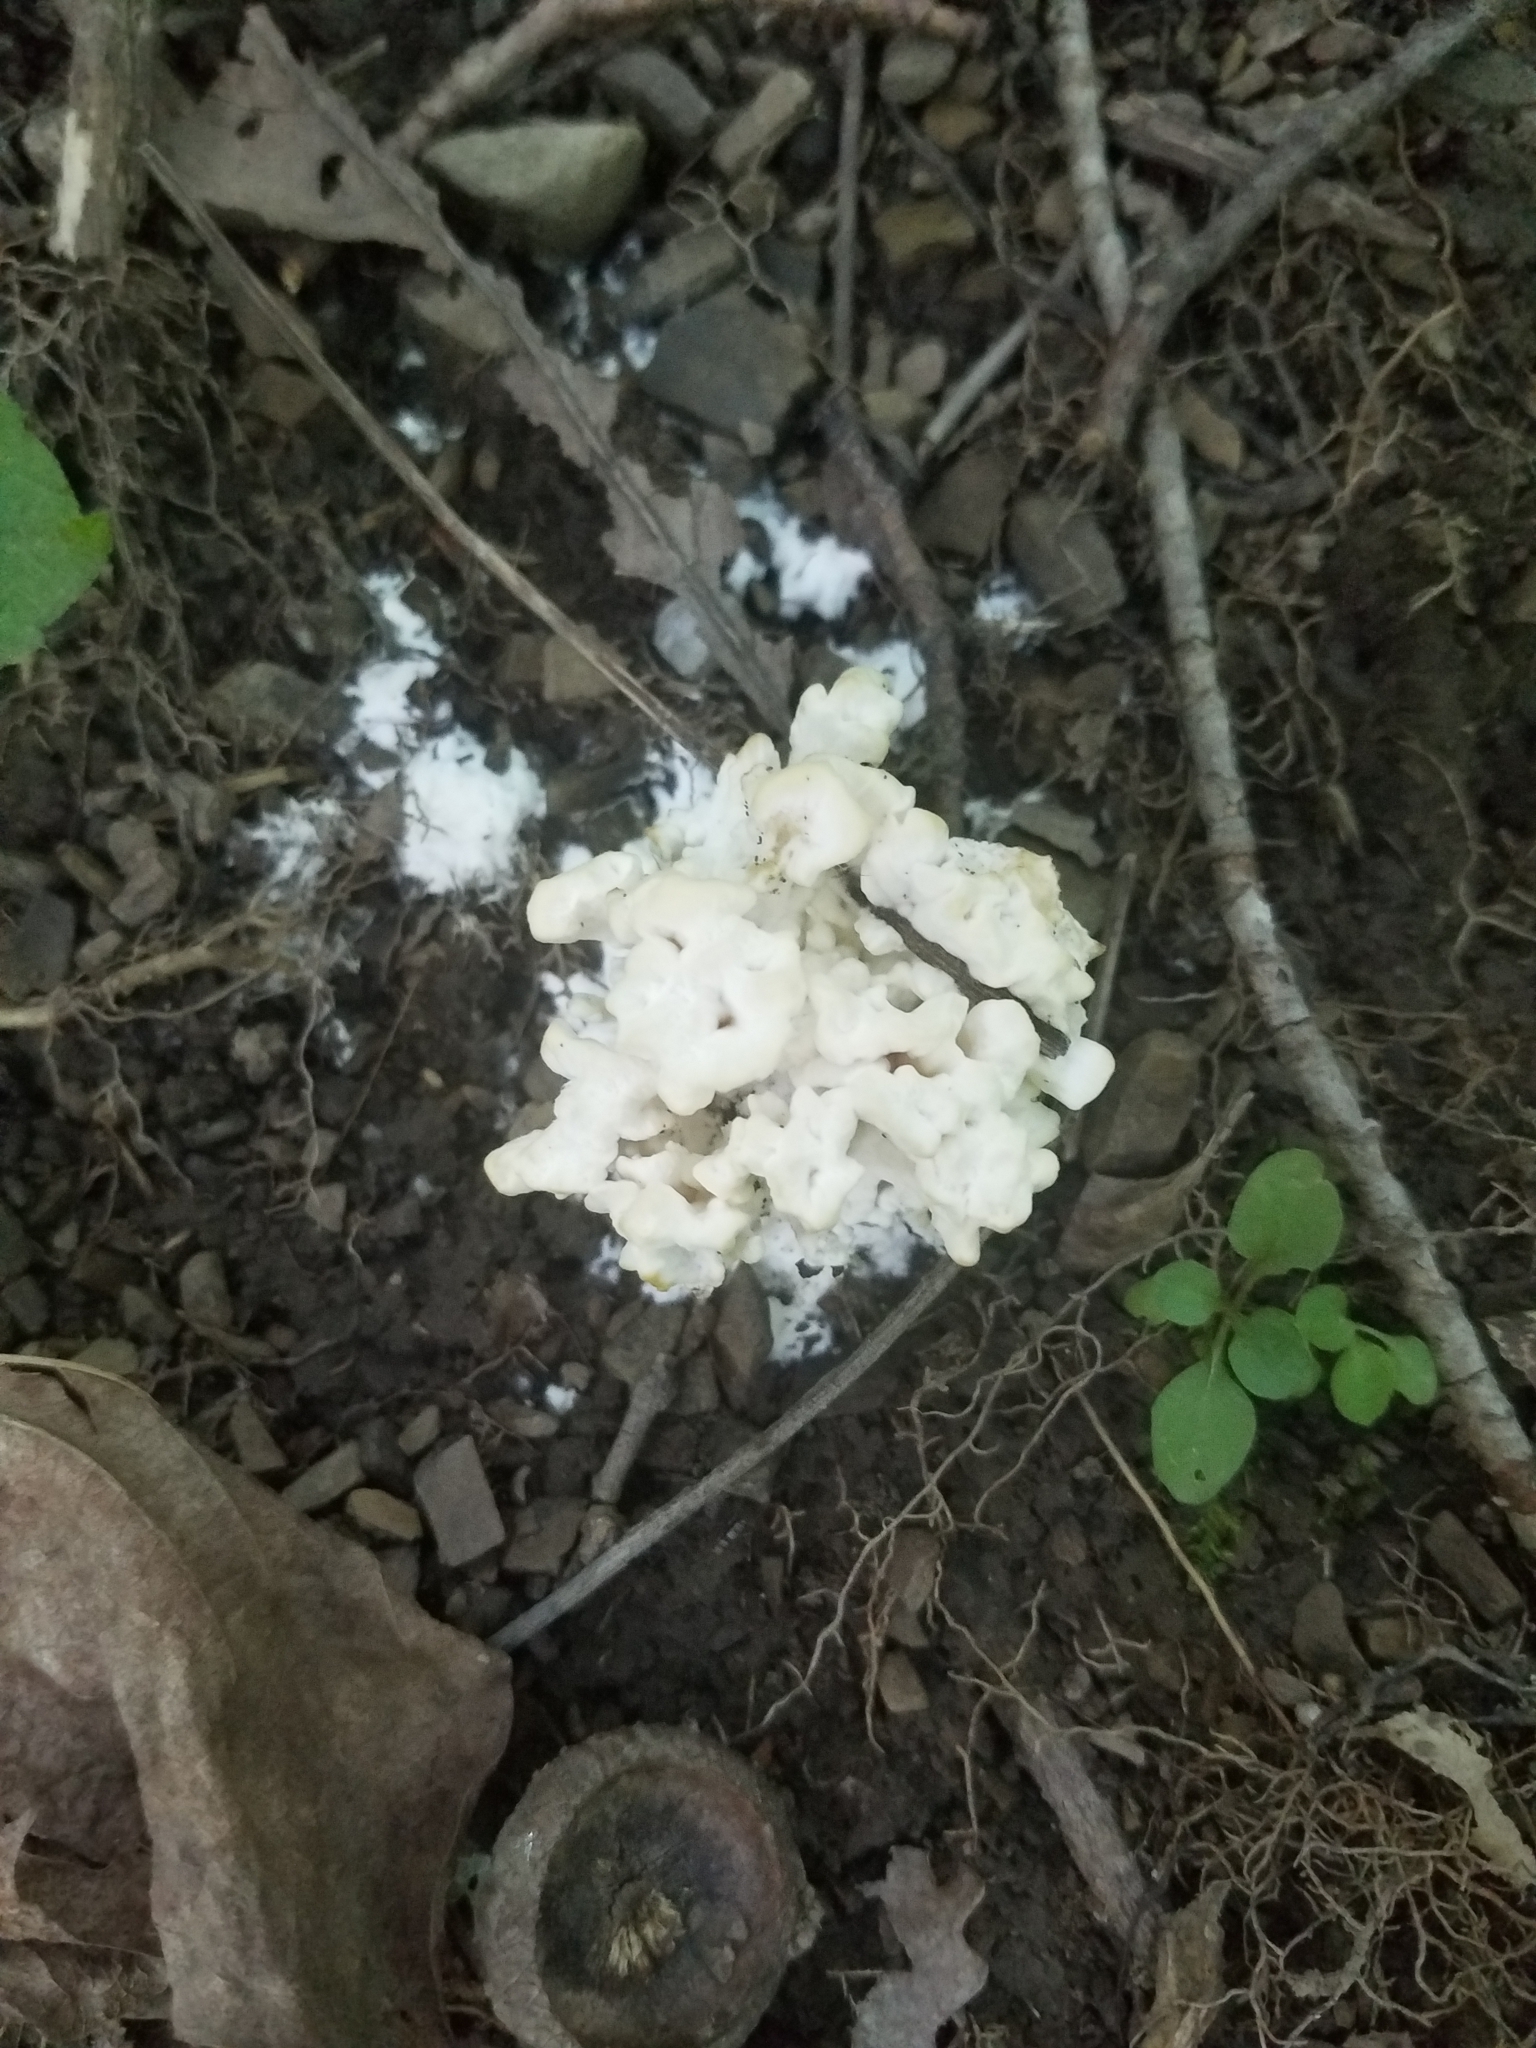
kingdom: Fungi
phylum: Basidiomycota
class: Agaricomycetes
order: Auriculariales
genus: Ductifera
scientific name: Ductifera pululahuana
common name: White jelly fungus
